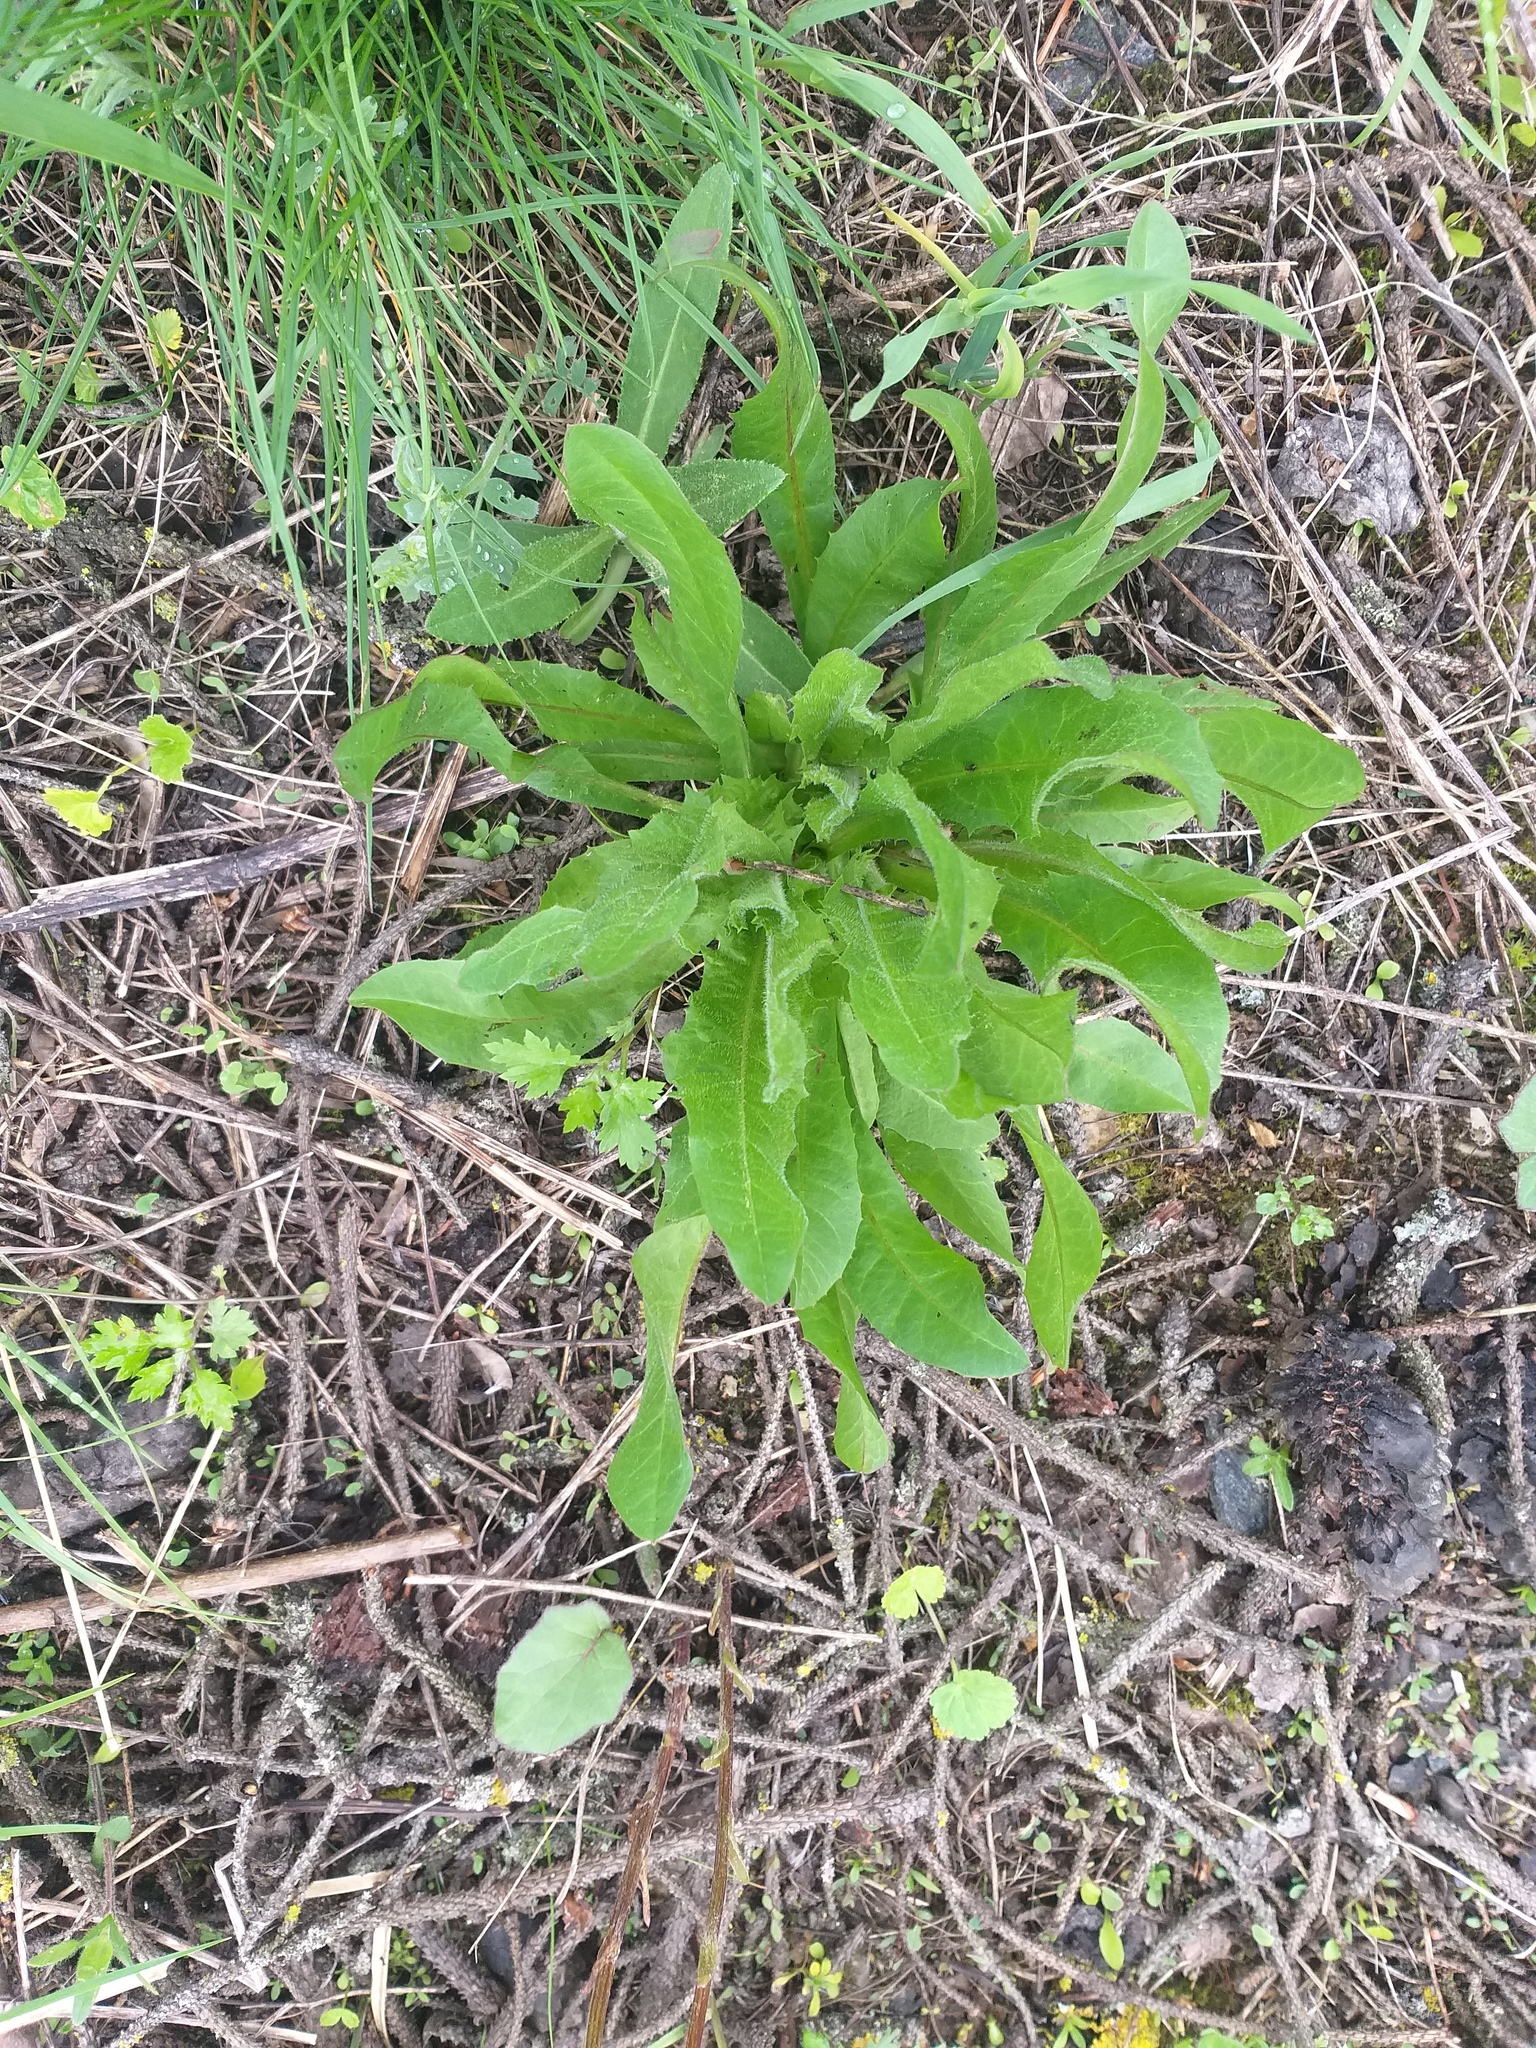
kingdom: Plantae
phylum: Tracheophyta
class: Magnoliopsida
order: Asterales
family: Asteraceae
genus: Cichorium
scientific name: Cichorium intybus
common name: Chicory
